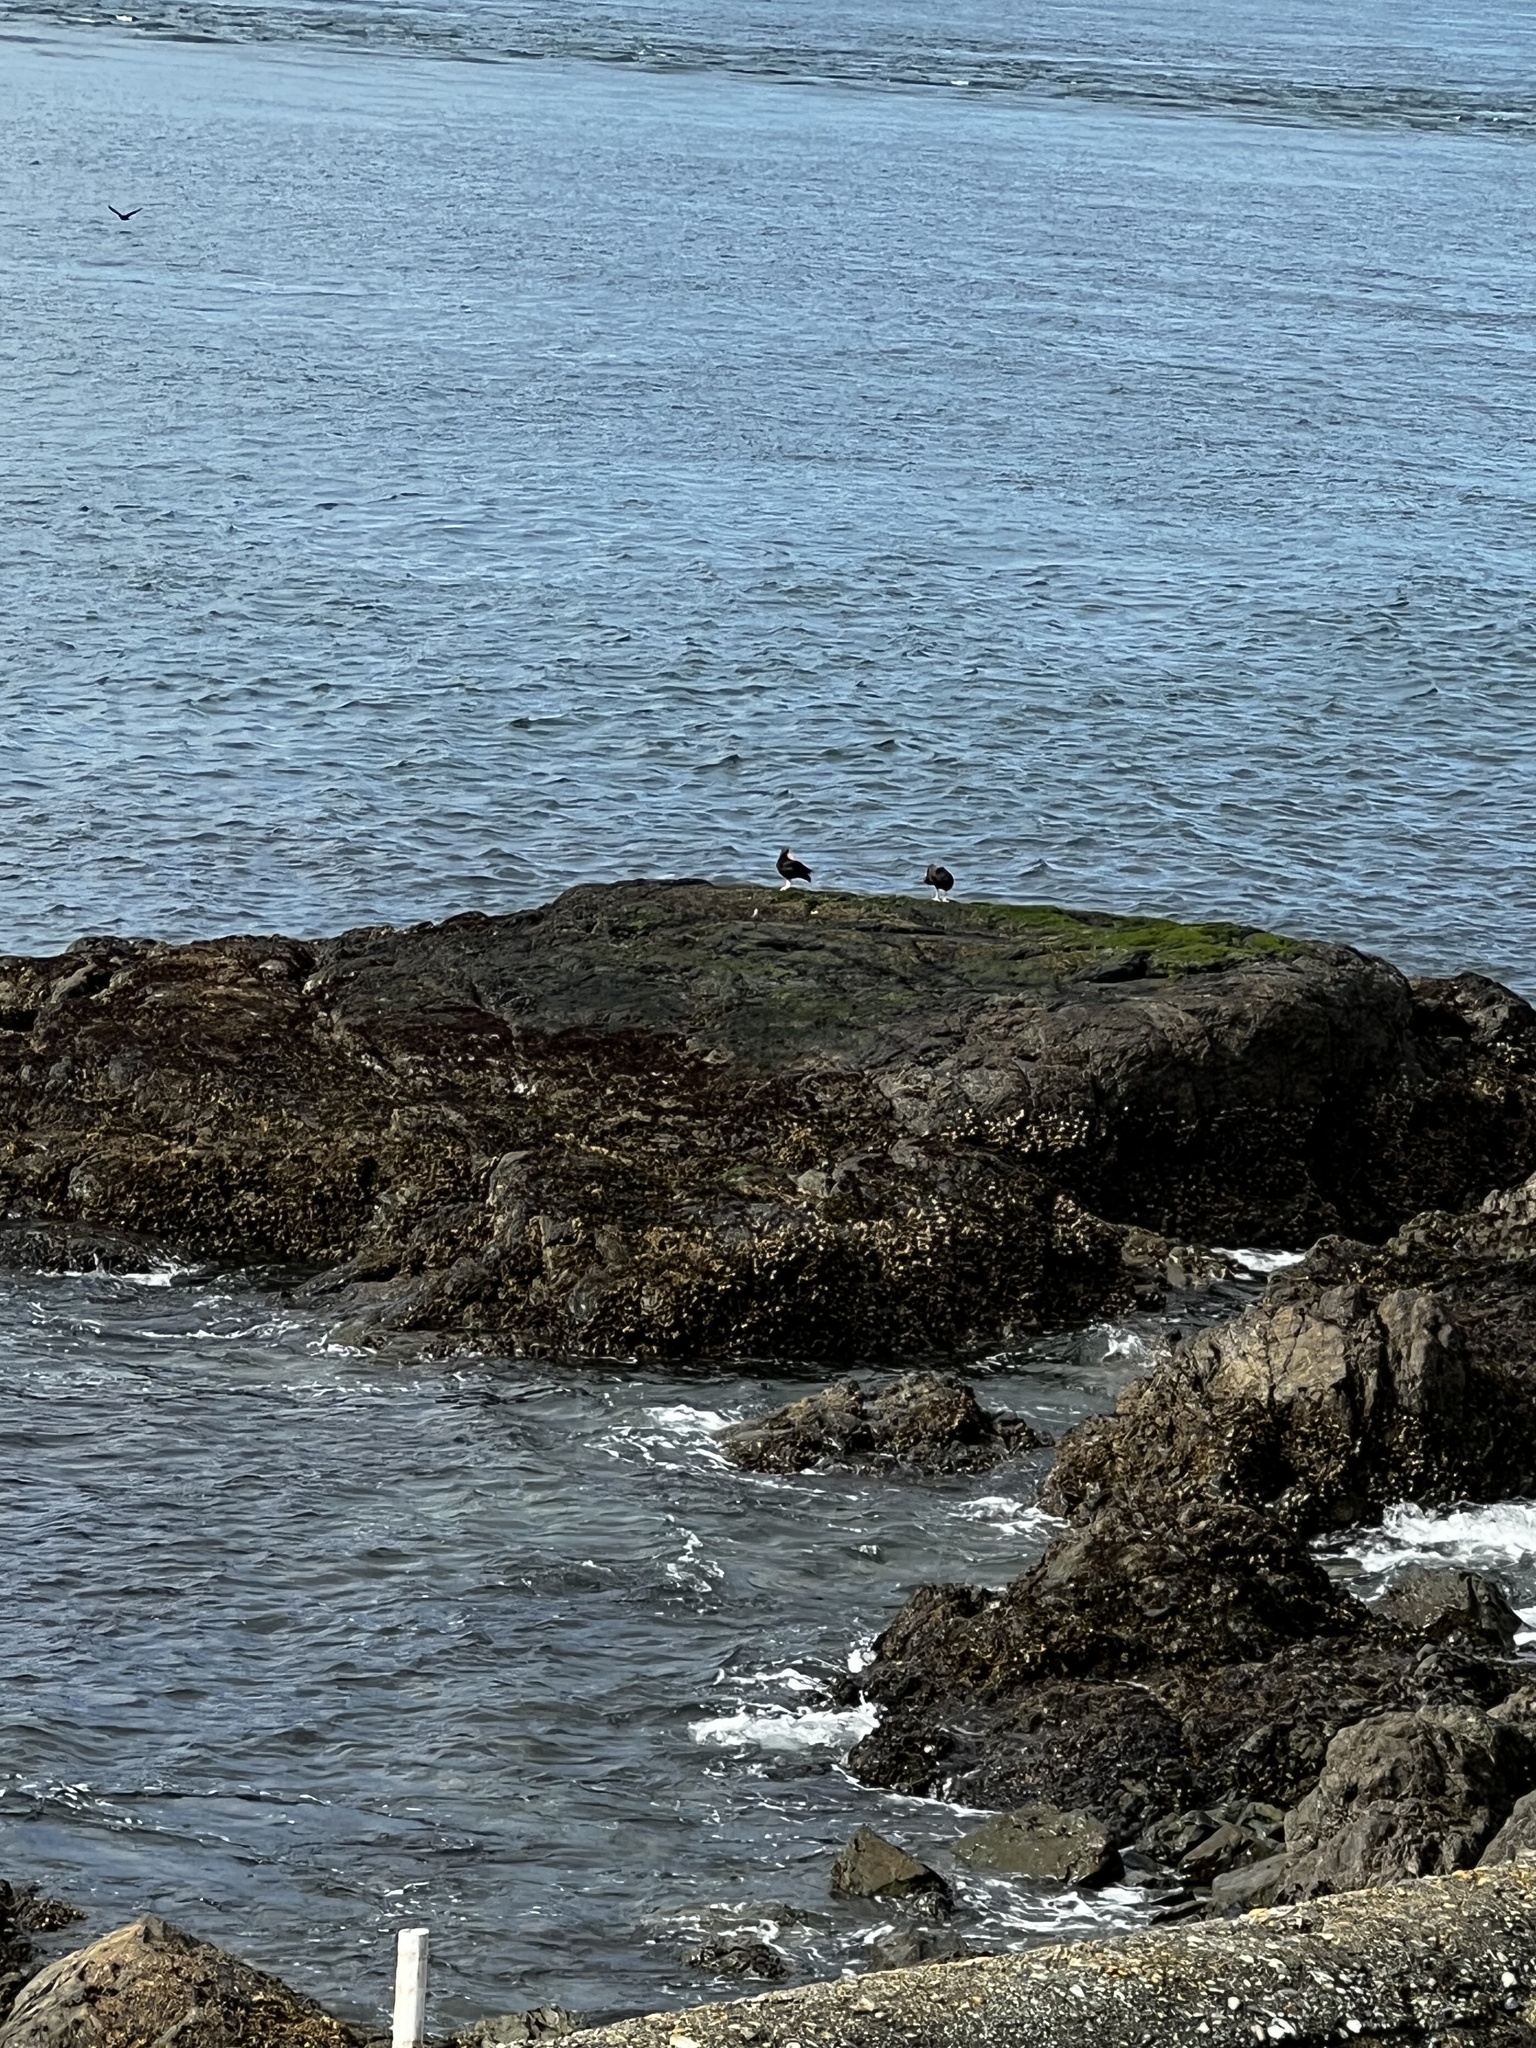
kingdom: Animalia
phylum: Chordata
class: Aves
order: Charadriiformes
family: Haematopodidae
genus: Haematopus
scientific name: Haematopus bachmani
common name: Black oystercatcher
